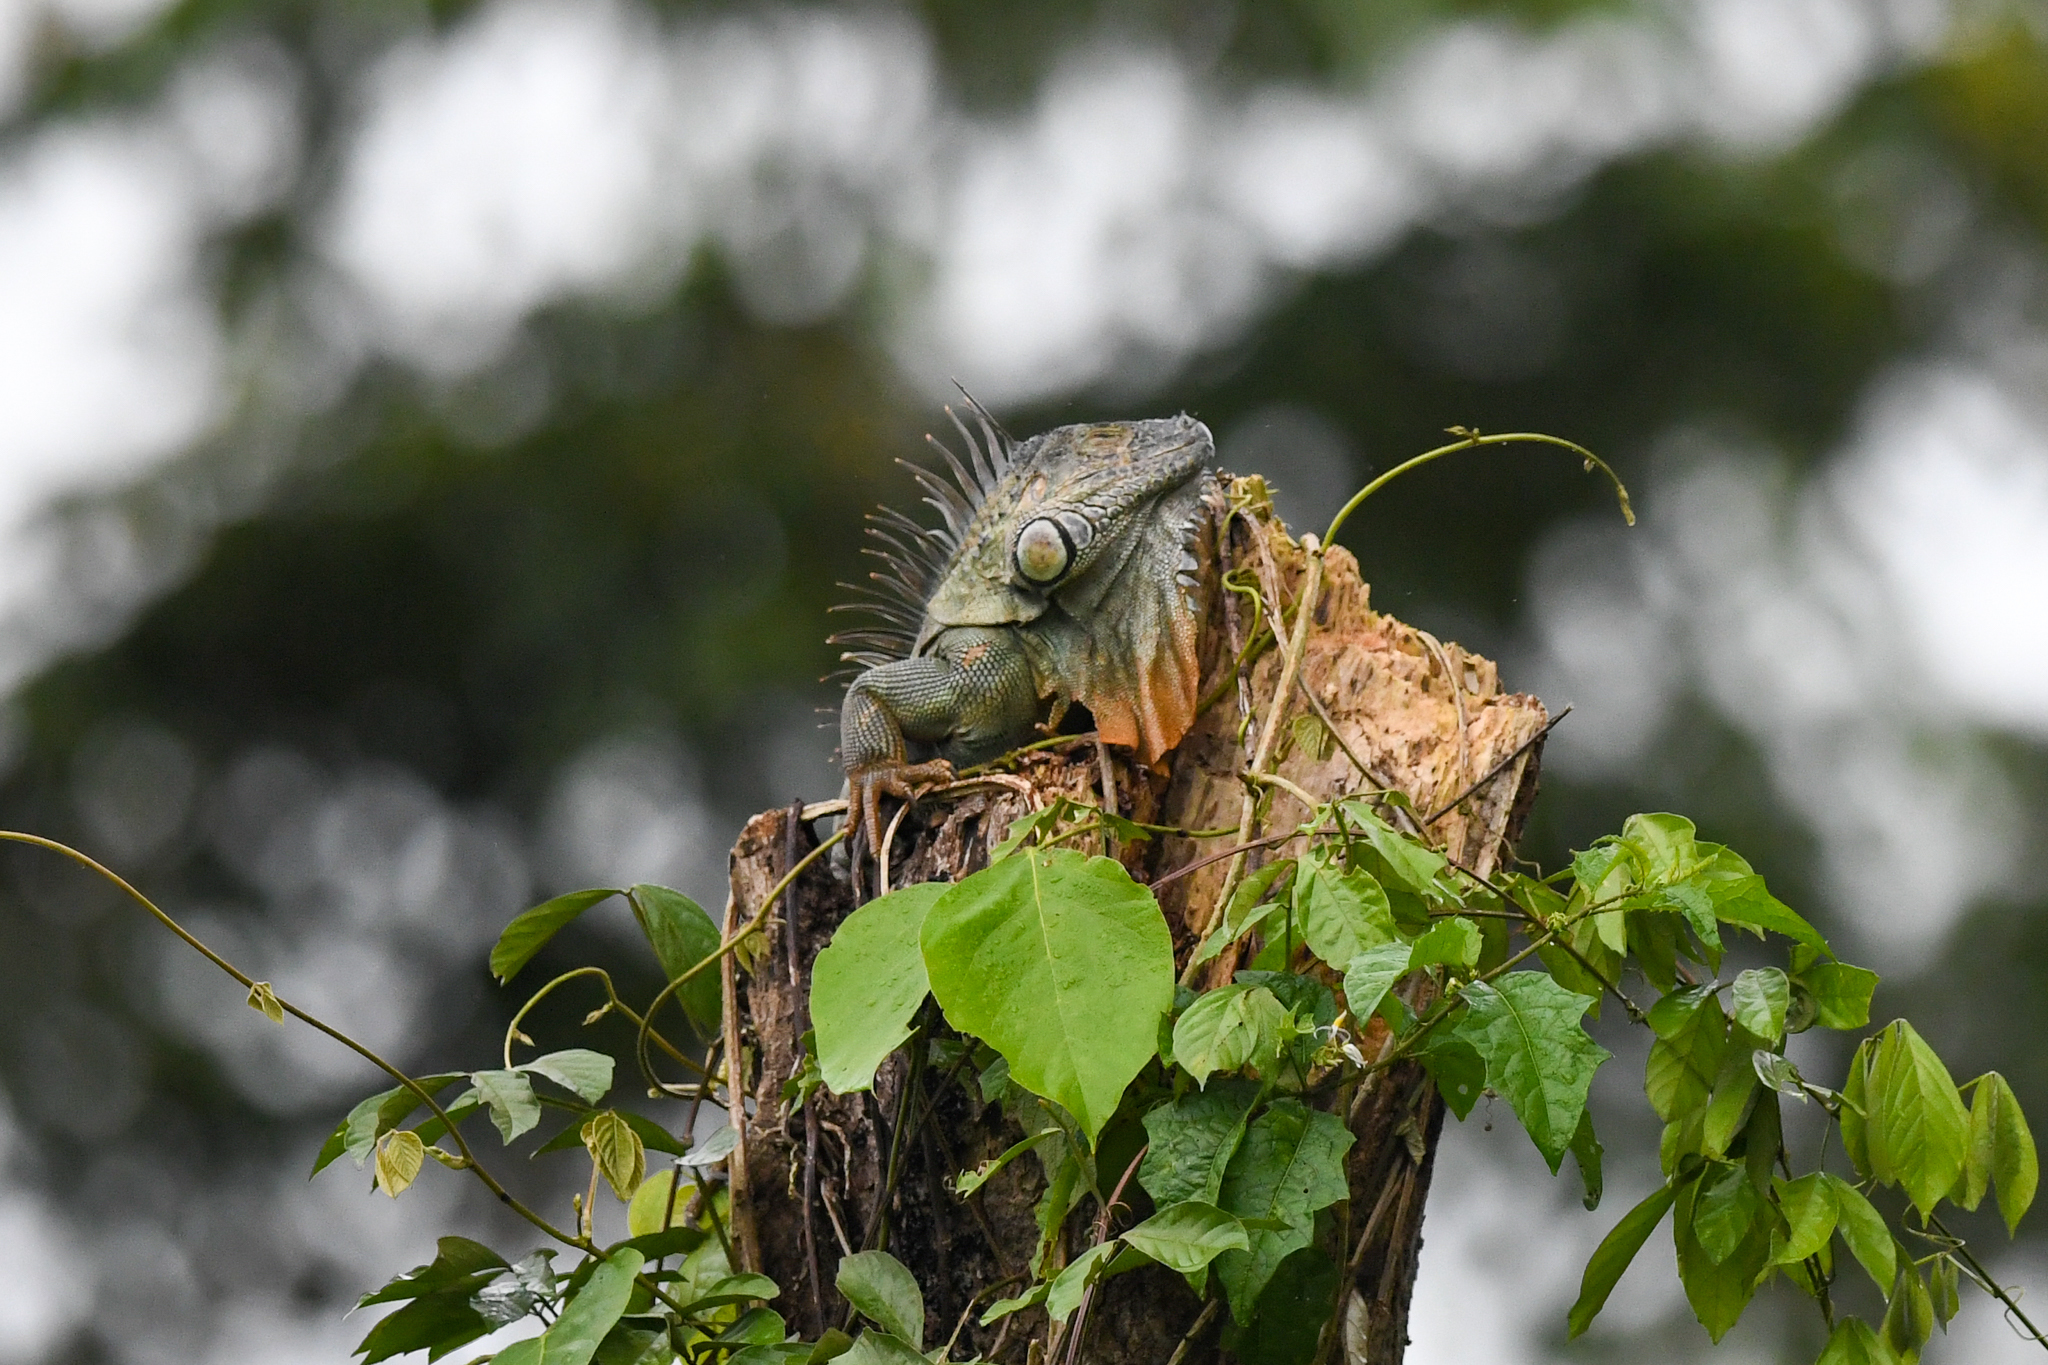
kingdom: Animalia
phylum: Chordata
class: Squamata
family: Iguanidae
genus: Iguana
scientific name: Iguana iguana
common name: Green iguana
